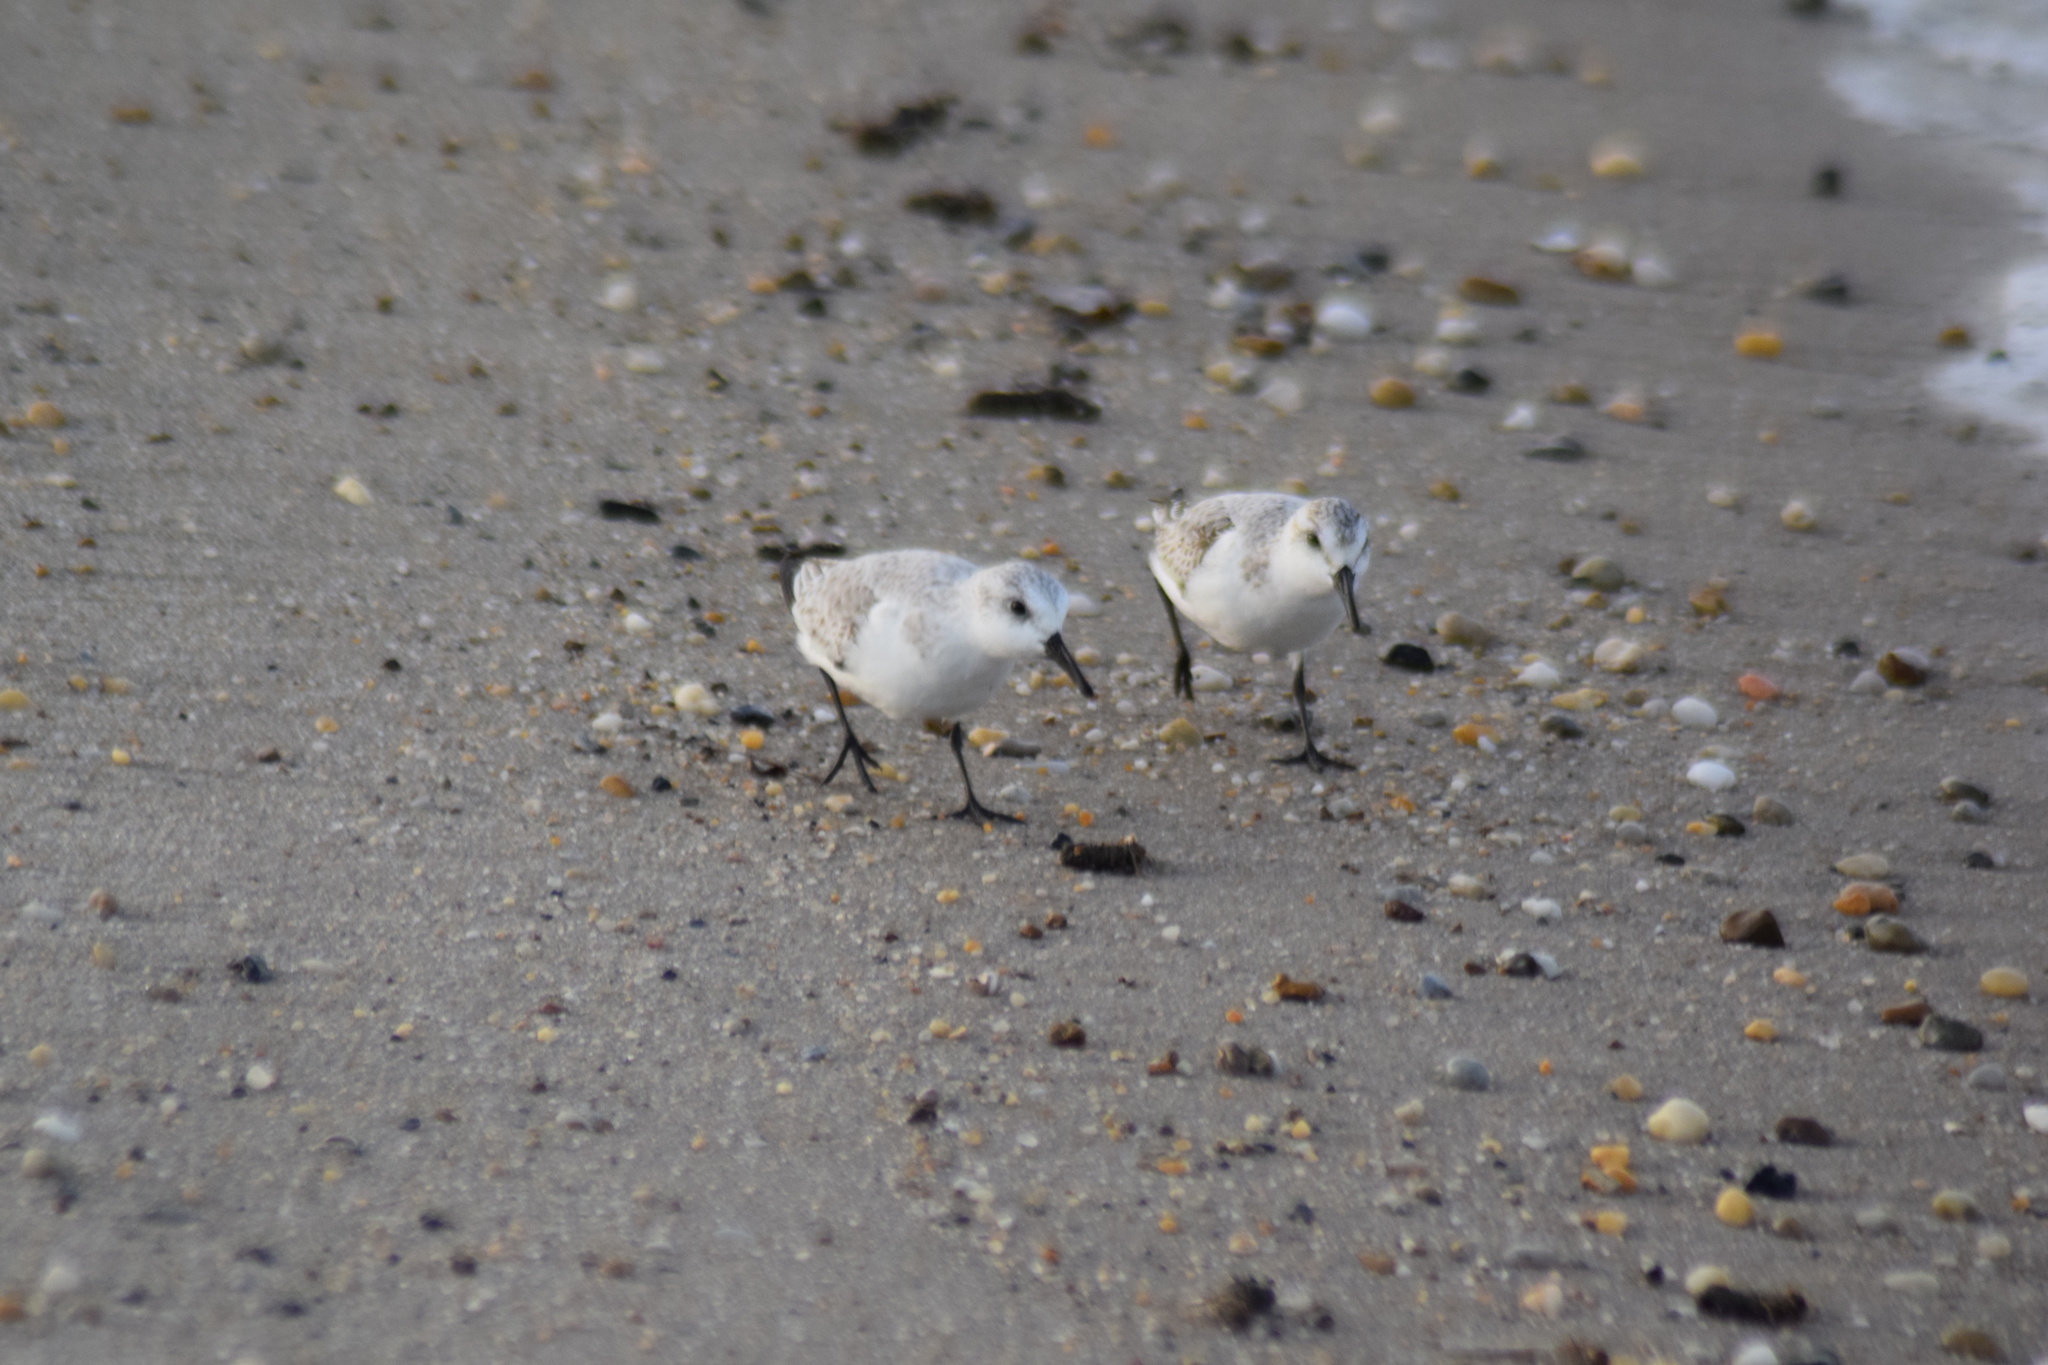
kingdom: Animalia
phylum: Chordata
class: Aves
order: Charadriiformes
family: Scolopacidae
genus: Calidris
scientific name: Calidris alba
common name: Sanderling
